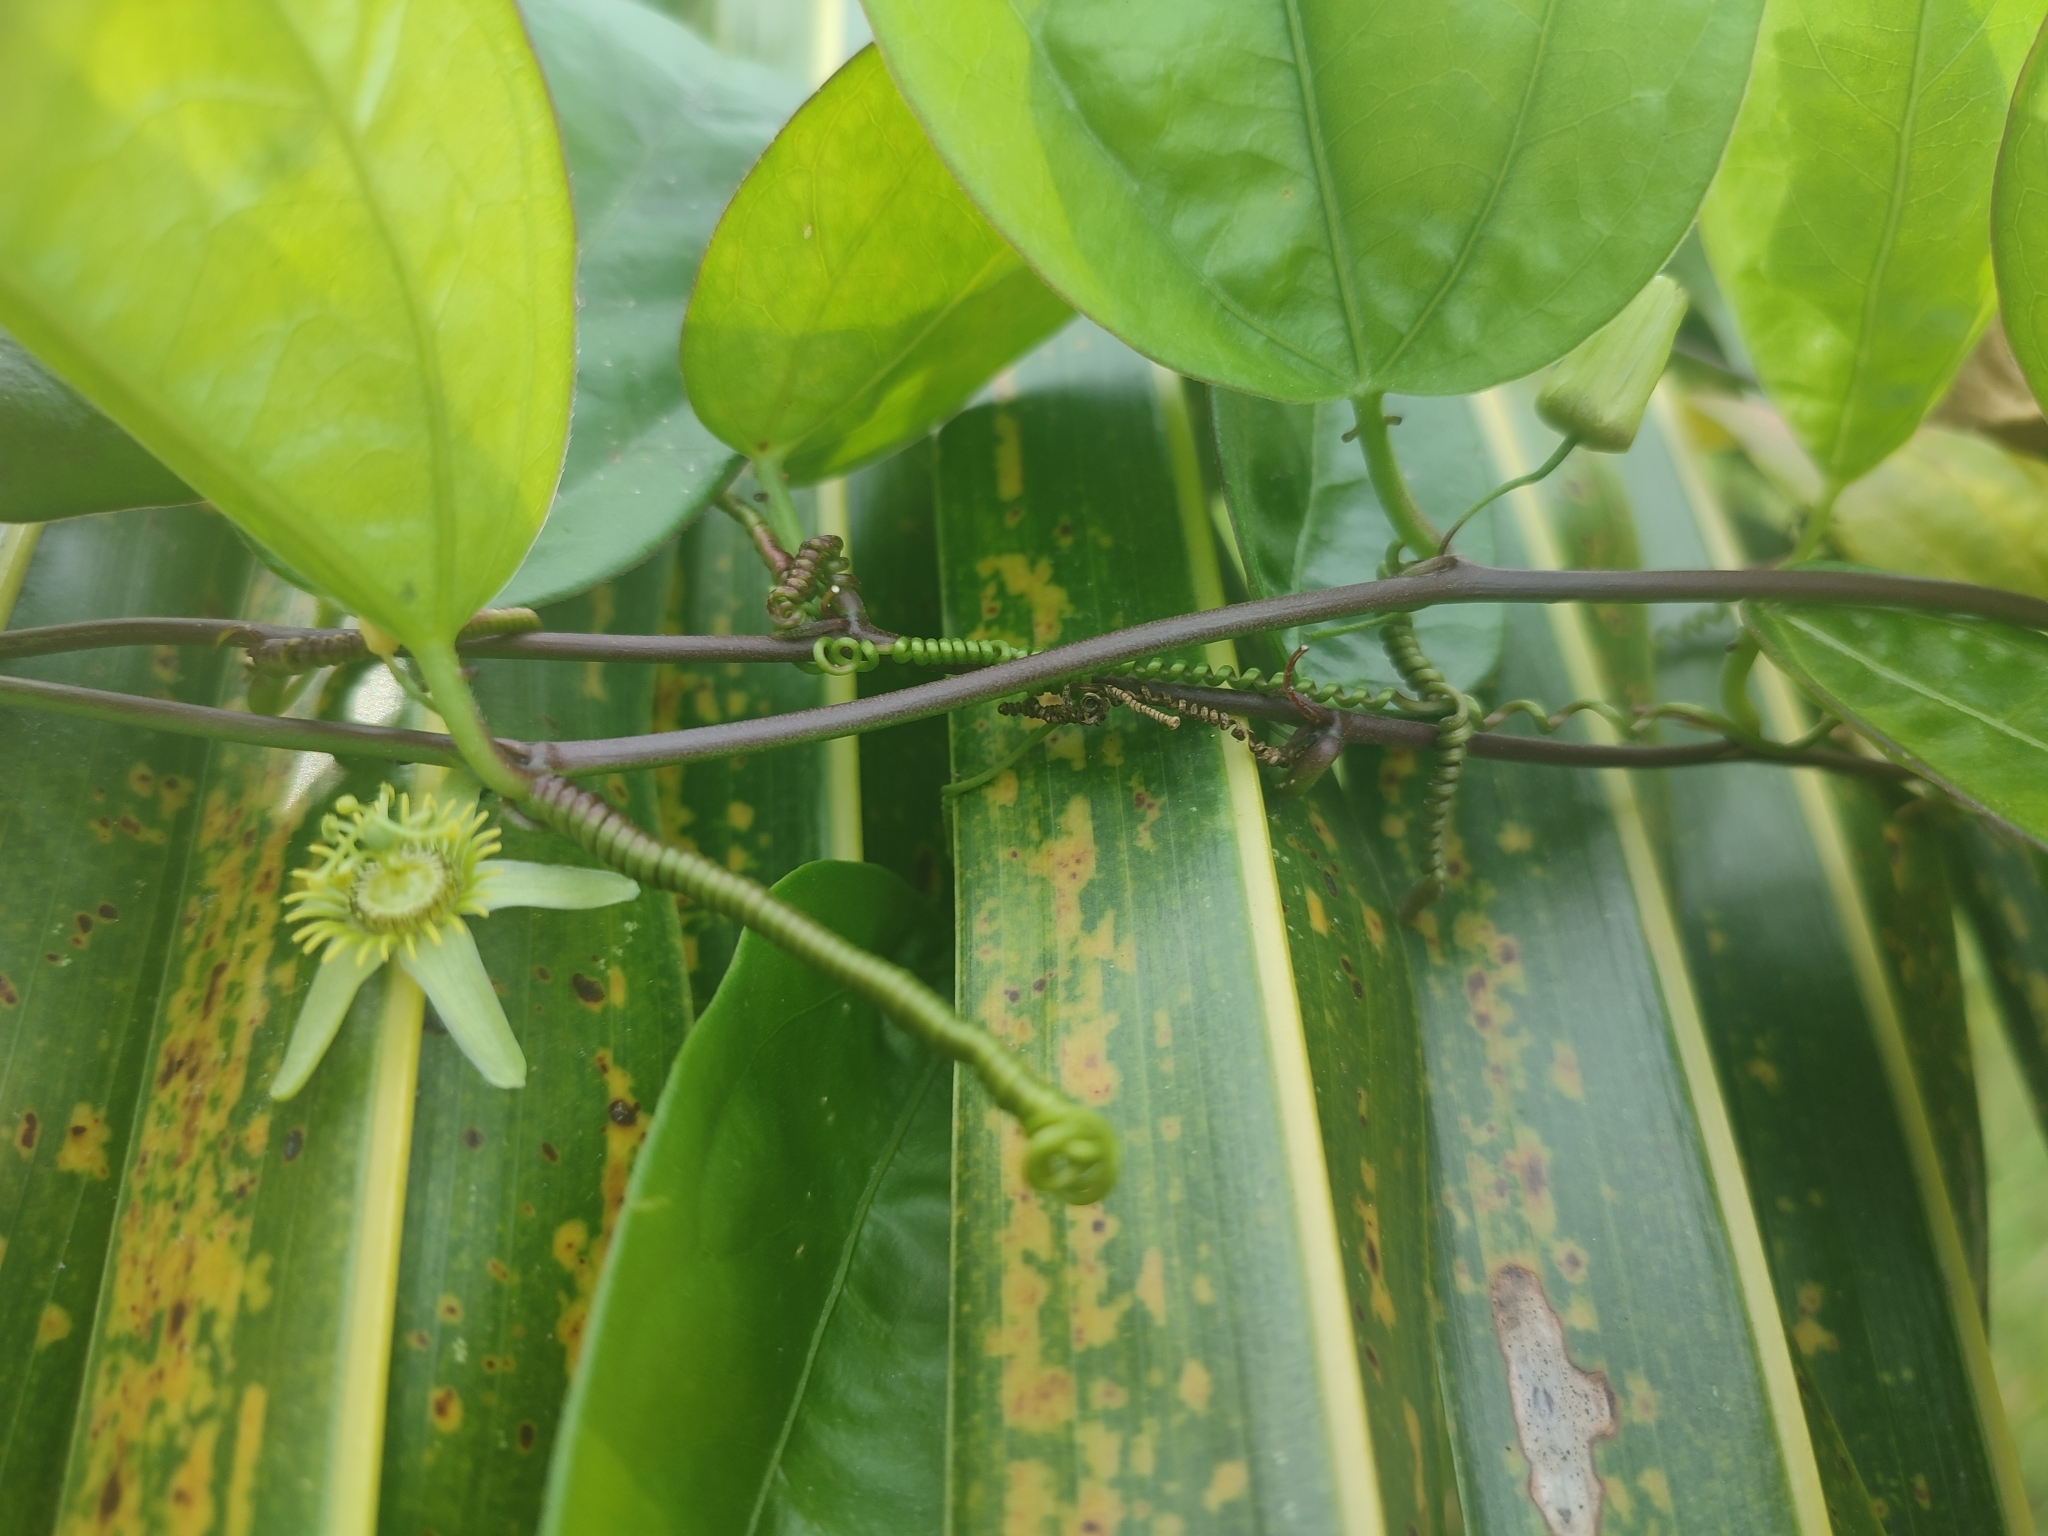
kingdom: Plantae
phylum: Tracheophyta
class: Magnoliopsida
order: Malpighiales
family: Passifloraceae
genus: Passiflora
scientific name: Passiflora pallida
